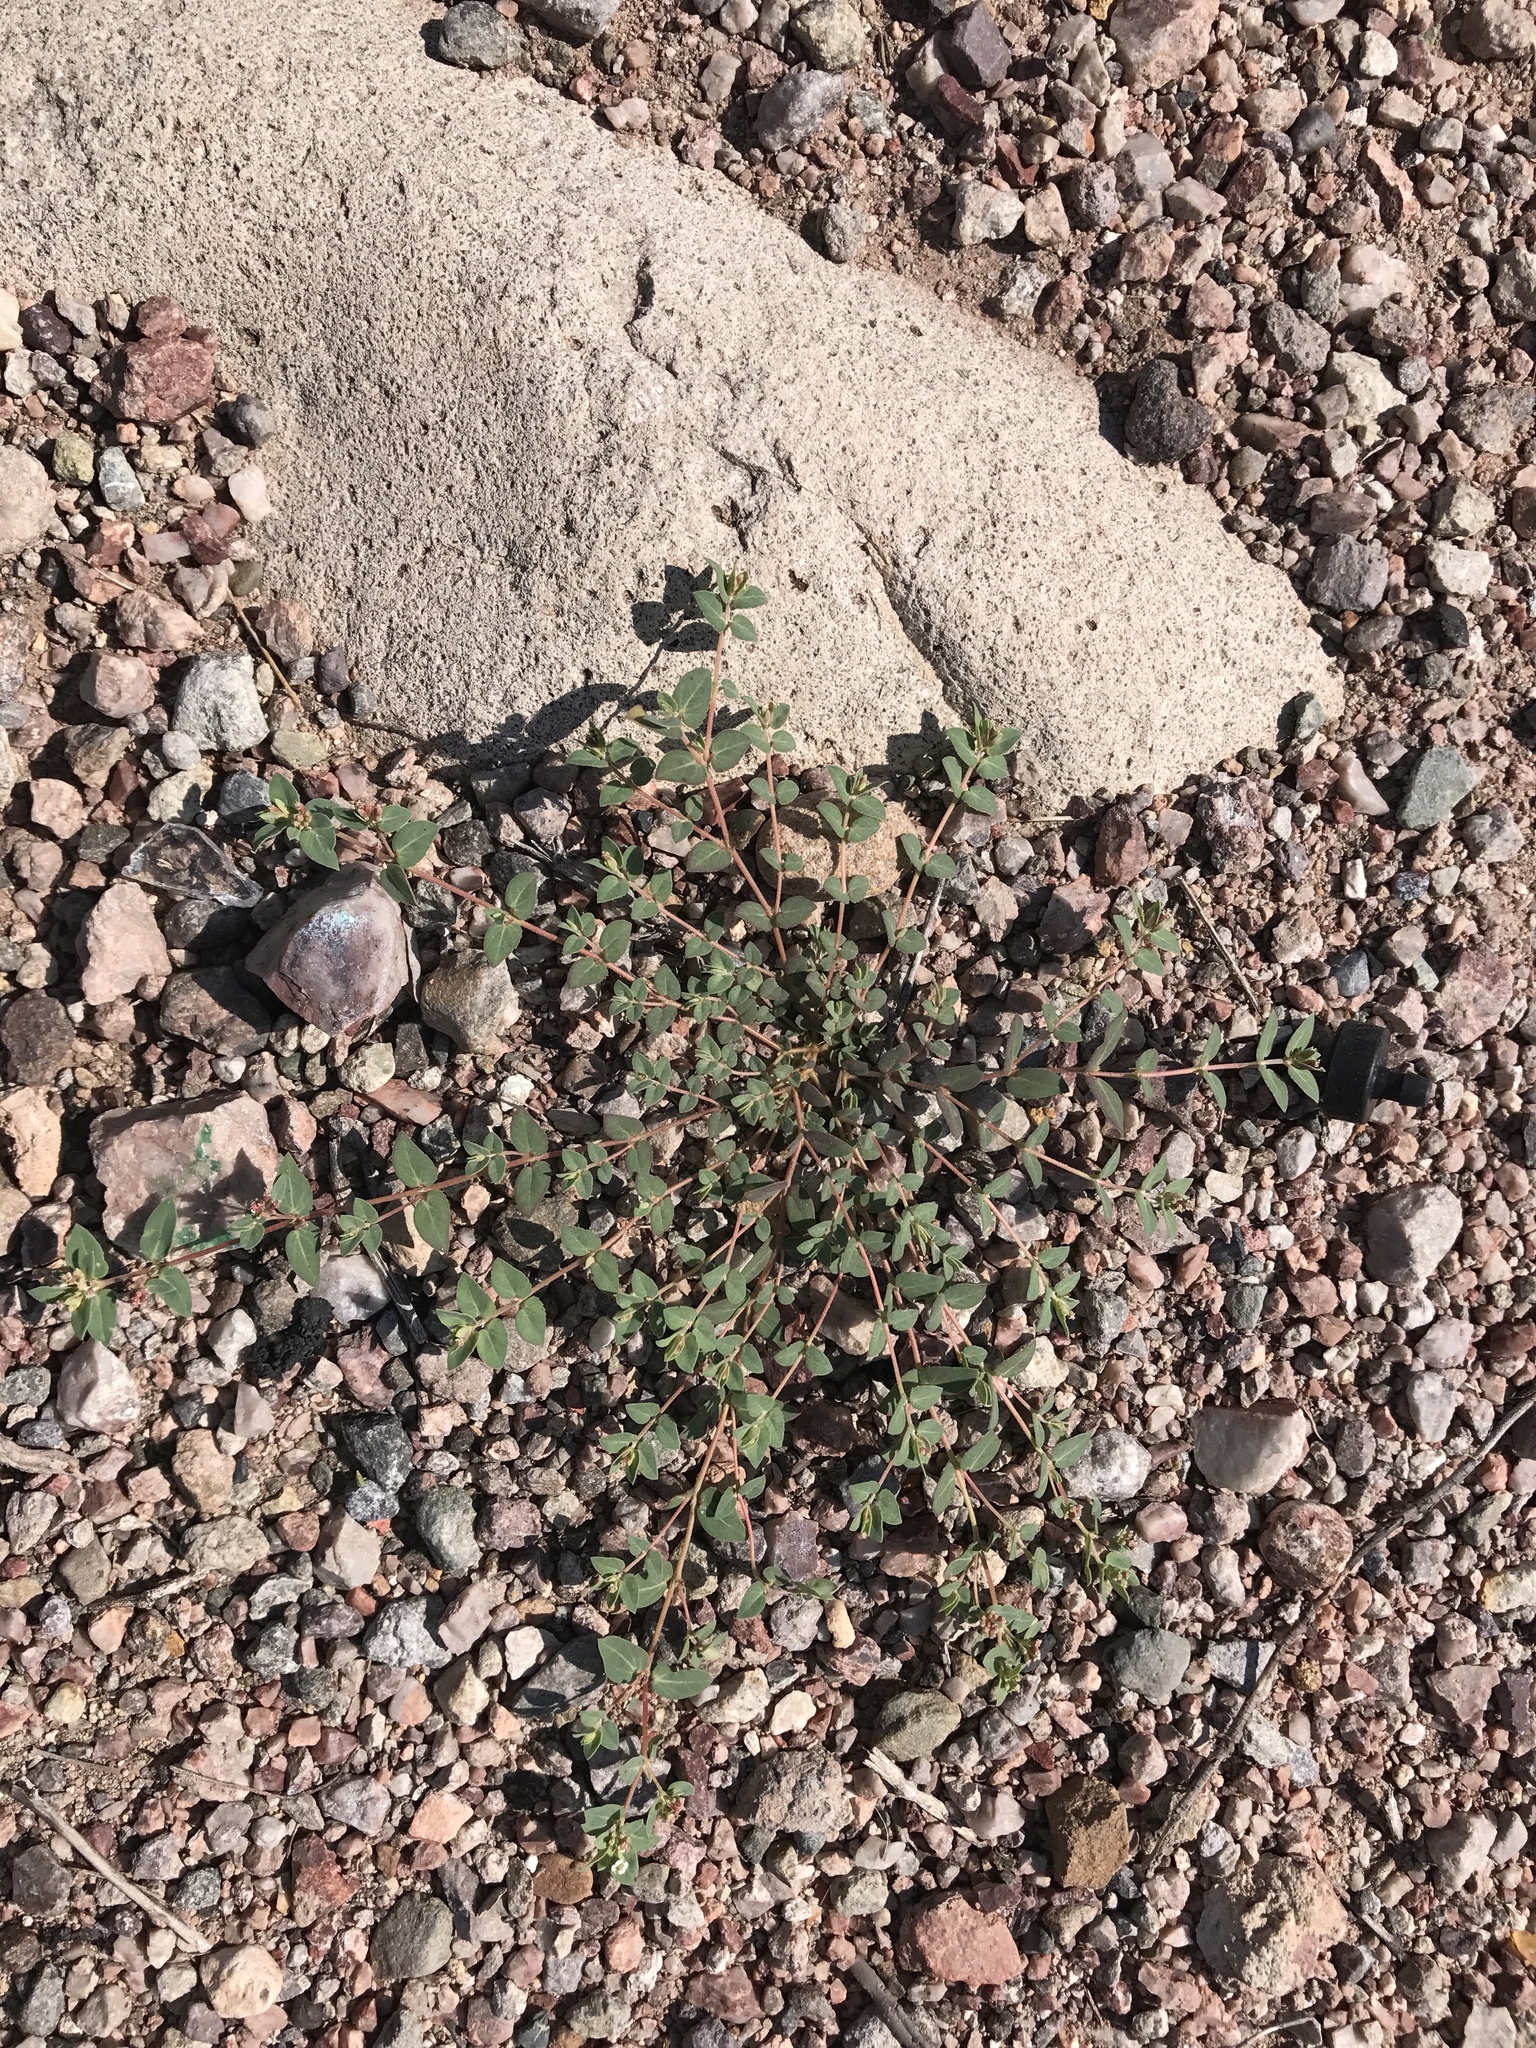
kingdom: Plantae
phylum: Tracheophyta
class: Magnoliopsida
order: Malpighiales
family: Euphorbiaceae
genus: Euphorbia
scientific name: Euphorbia capitellata
